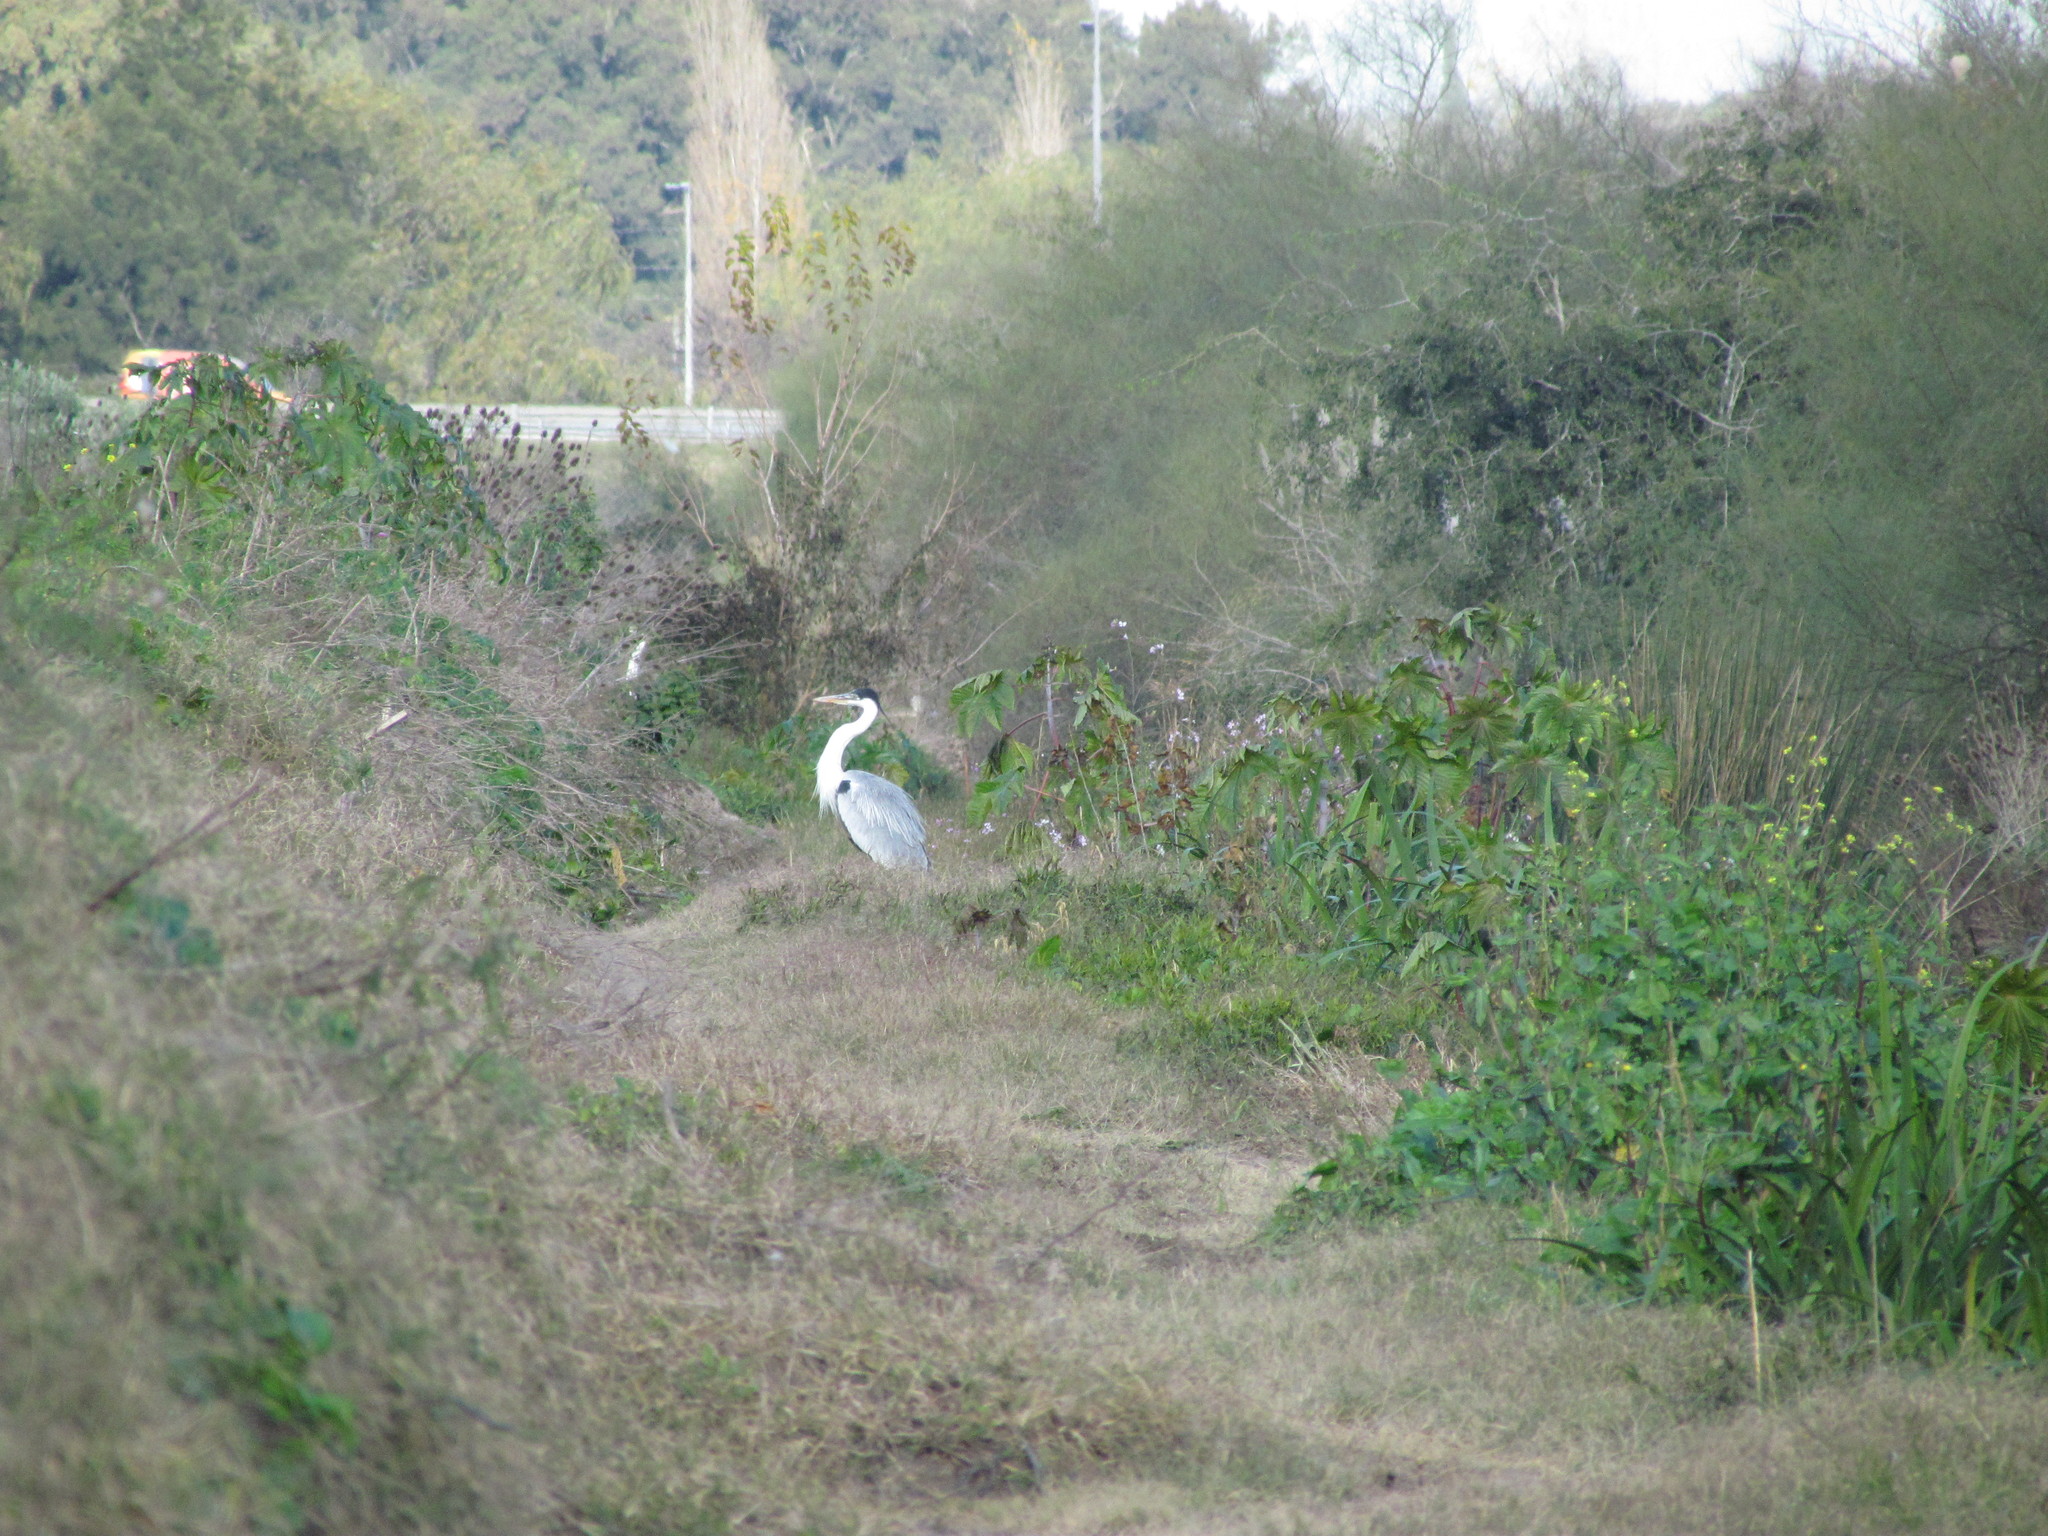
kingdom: Animalia
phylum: Chordata
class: Aves
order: Pelecaniformes
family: Ardeidae
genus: Ardea
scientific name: Ardea cocoi
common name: Cocoi heron
